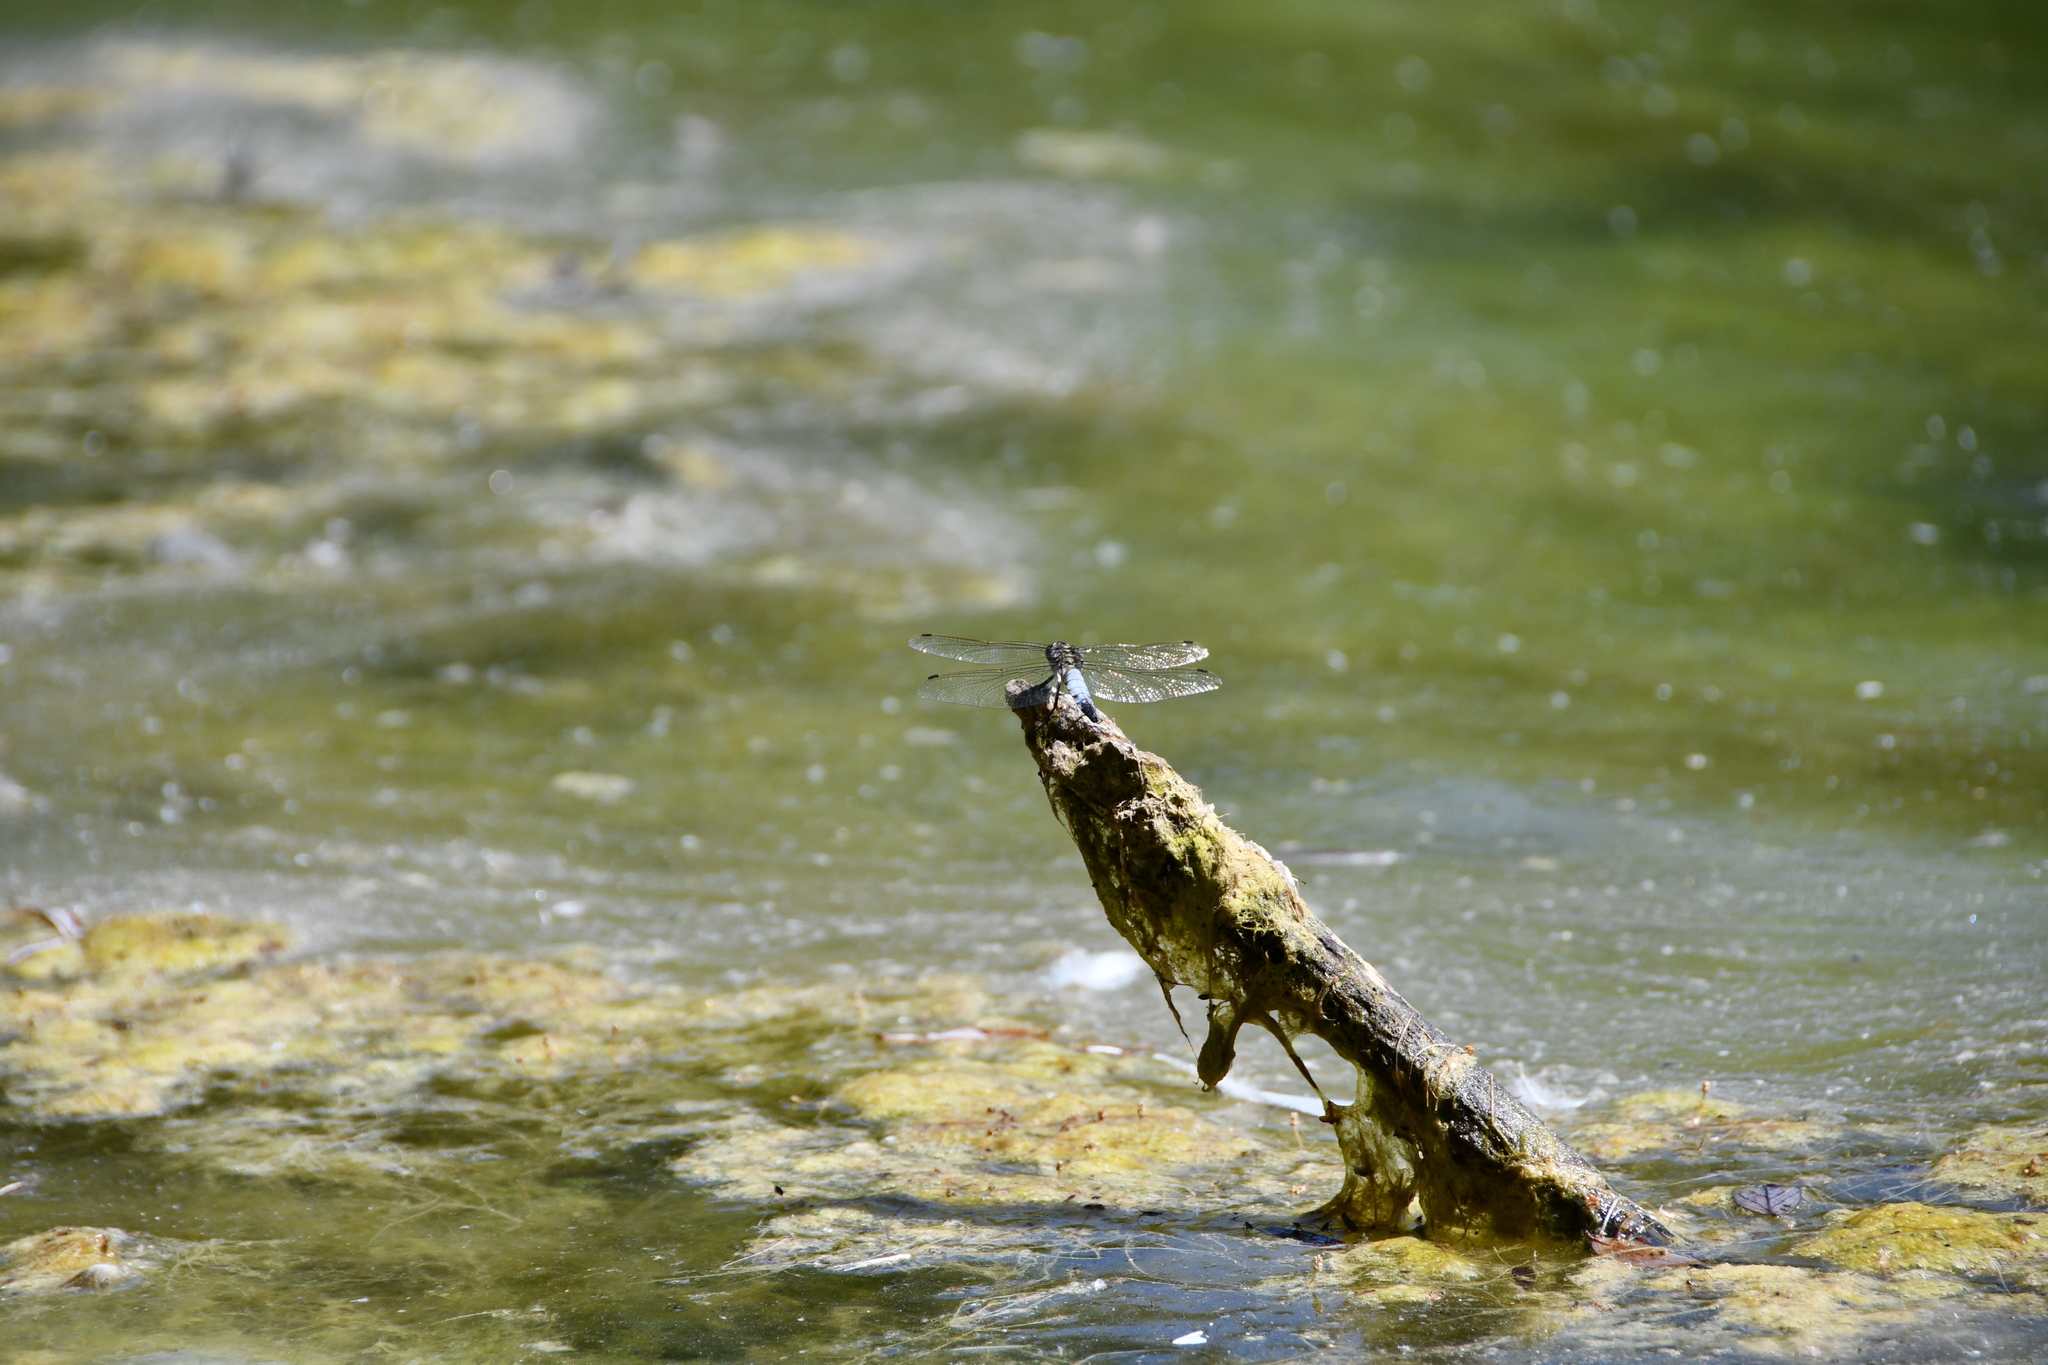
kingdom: Animalia
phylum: Arthropoda
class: Insecta
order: Odonata
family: Libellulidae
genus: Orthetrum
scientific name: Orthetrum cancellatum
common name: Black-tailed skimmer
